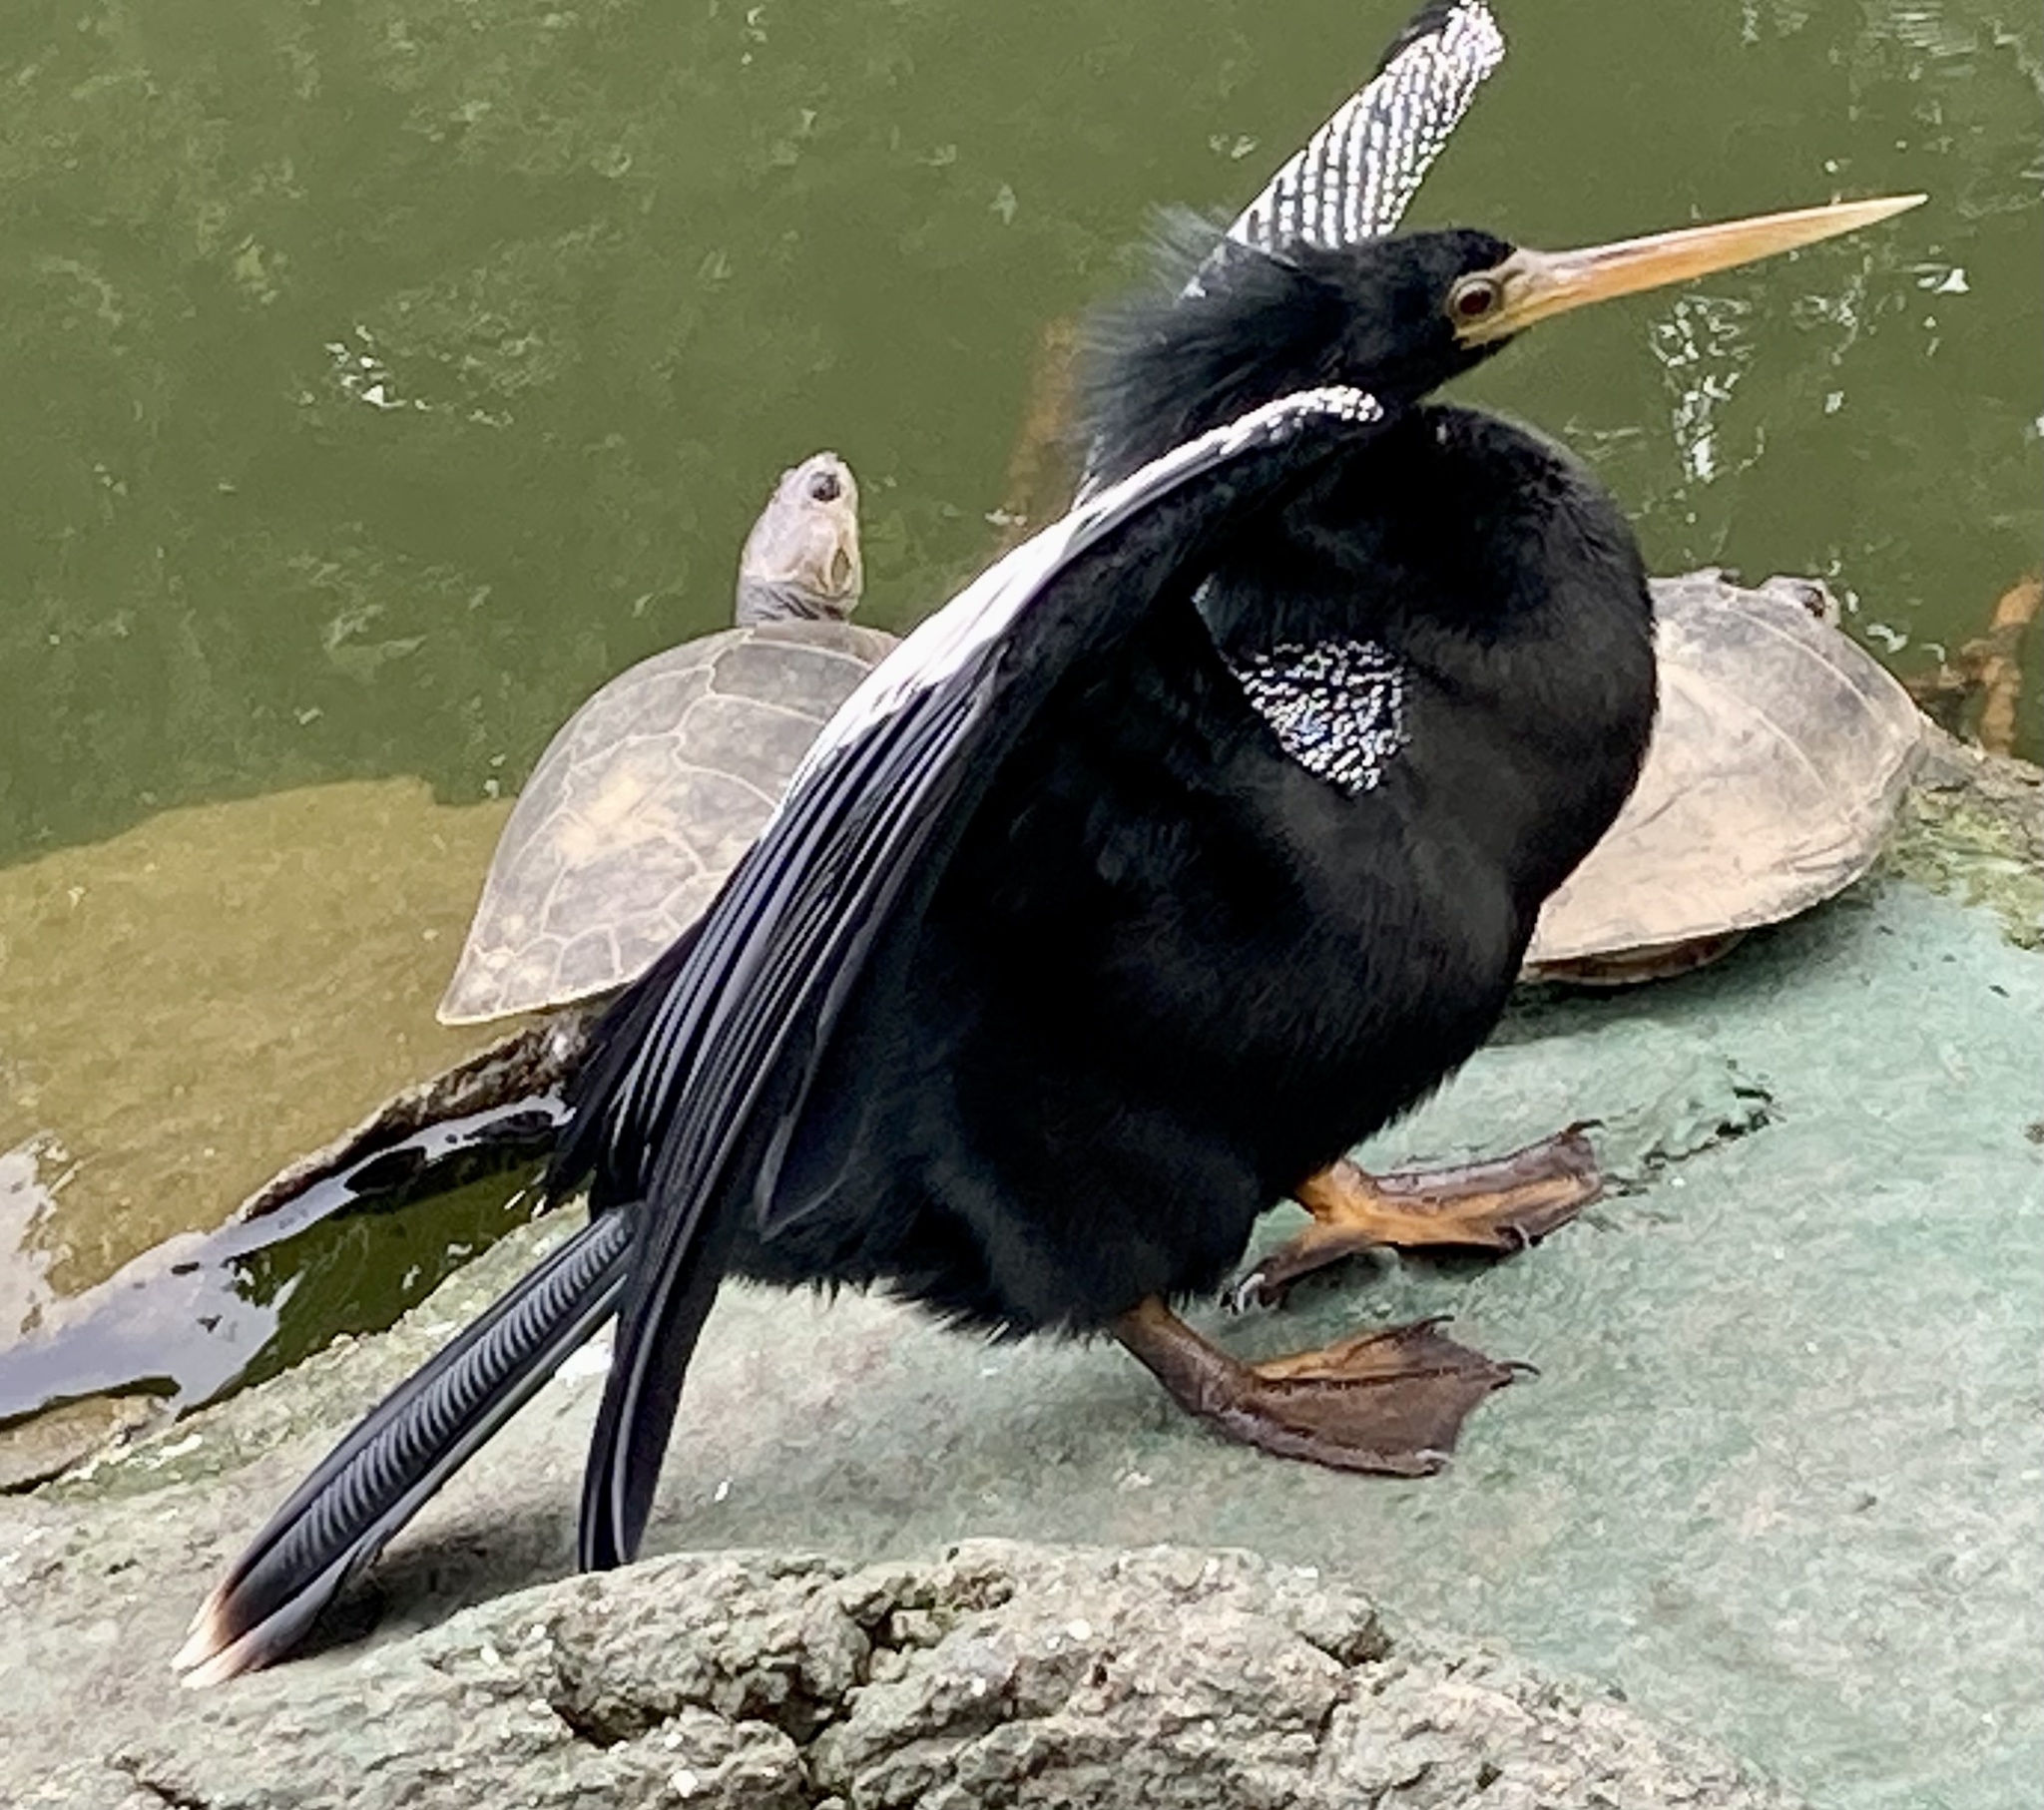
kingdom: Animalia
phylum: Chordata
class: Aves
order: Suliformes
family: Anhingidae
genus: Anhinga
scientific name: Anhinga anhinga
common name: Anhinga
